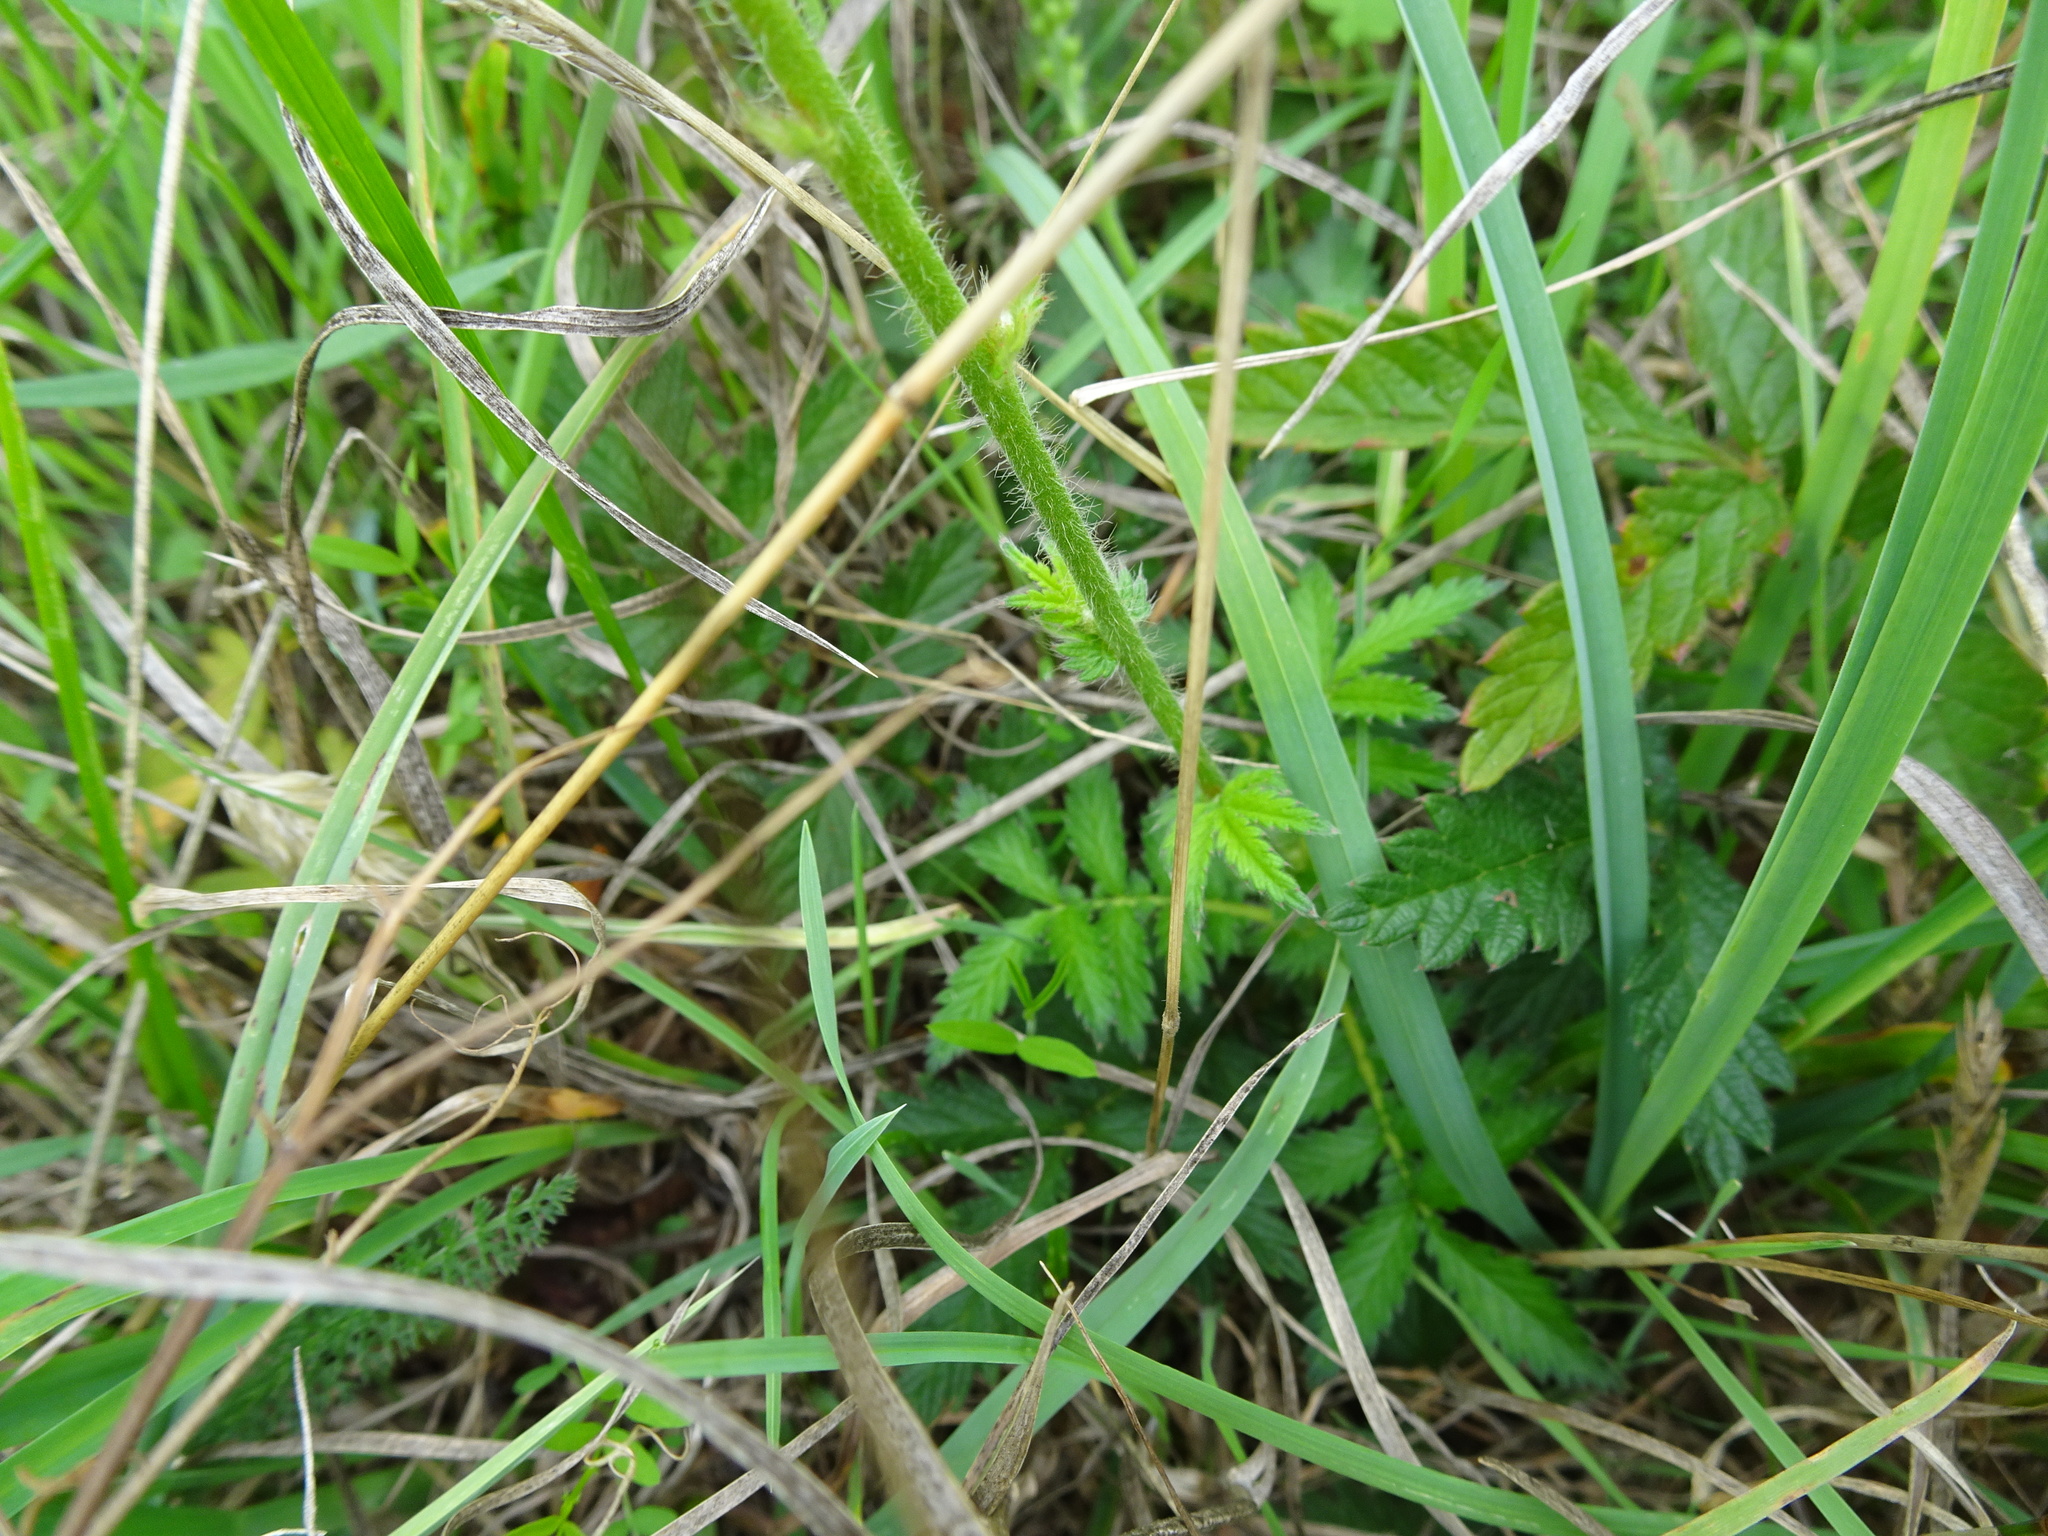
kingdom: Plantae
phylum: Tracheophyta
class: Magnoliopsida
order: Rosales
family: Rosaceae
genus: Agrimonia
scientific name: Agrimonia eupatoria
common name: Agrimony
